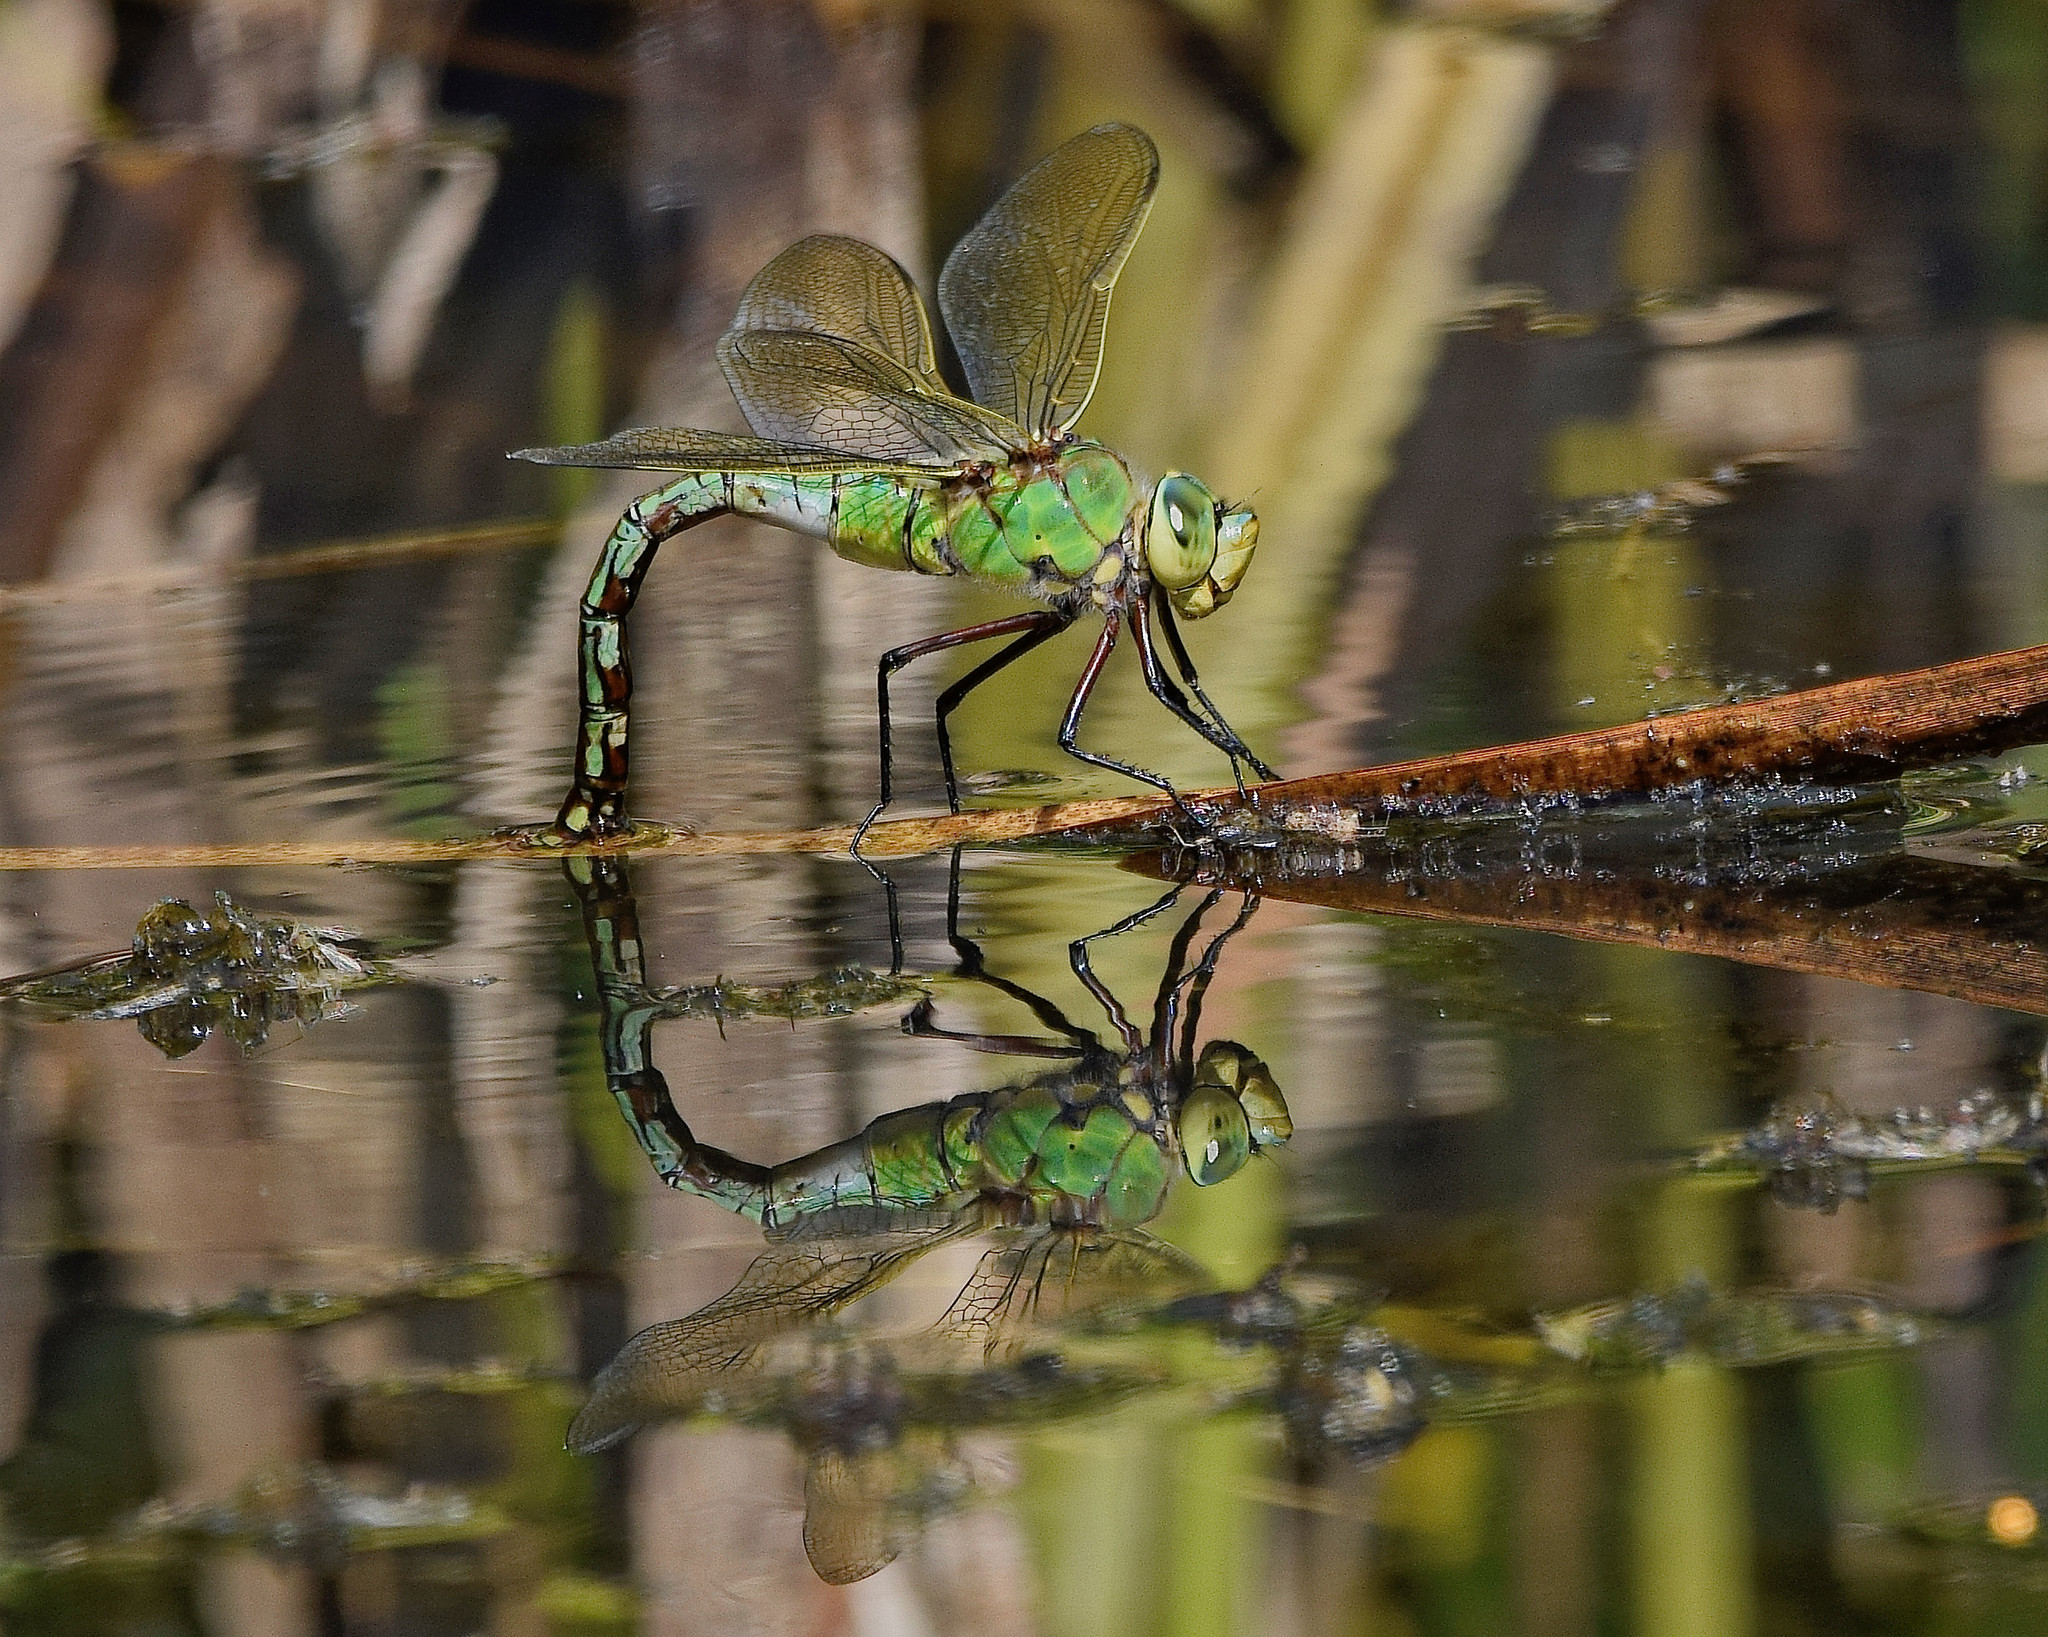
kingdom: Animalia
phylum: Arthropoda
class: Insecta
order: Odonata
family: Aeshnidae
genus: Anax
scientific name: Anax imperator
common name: Emperor dragonfly
